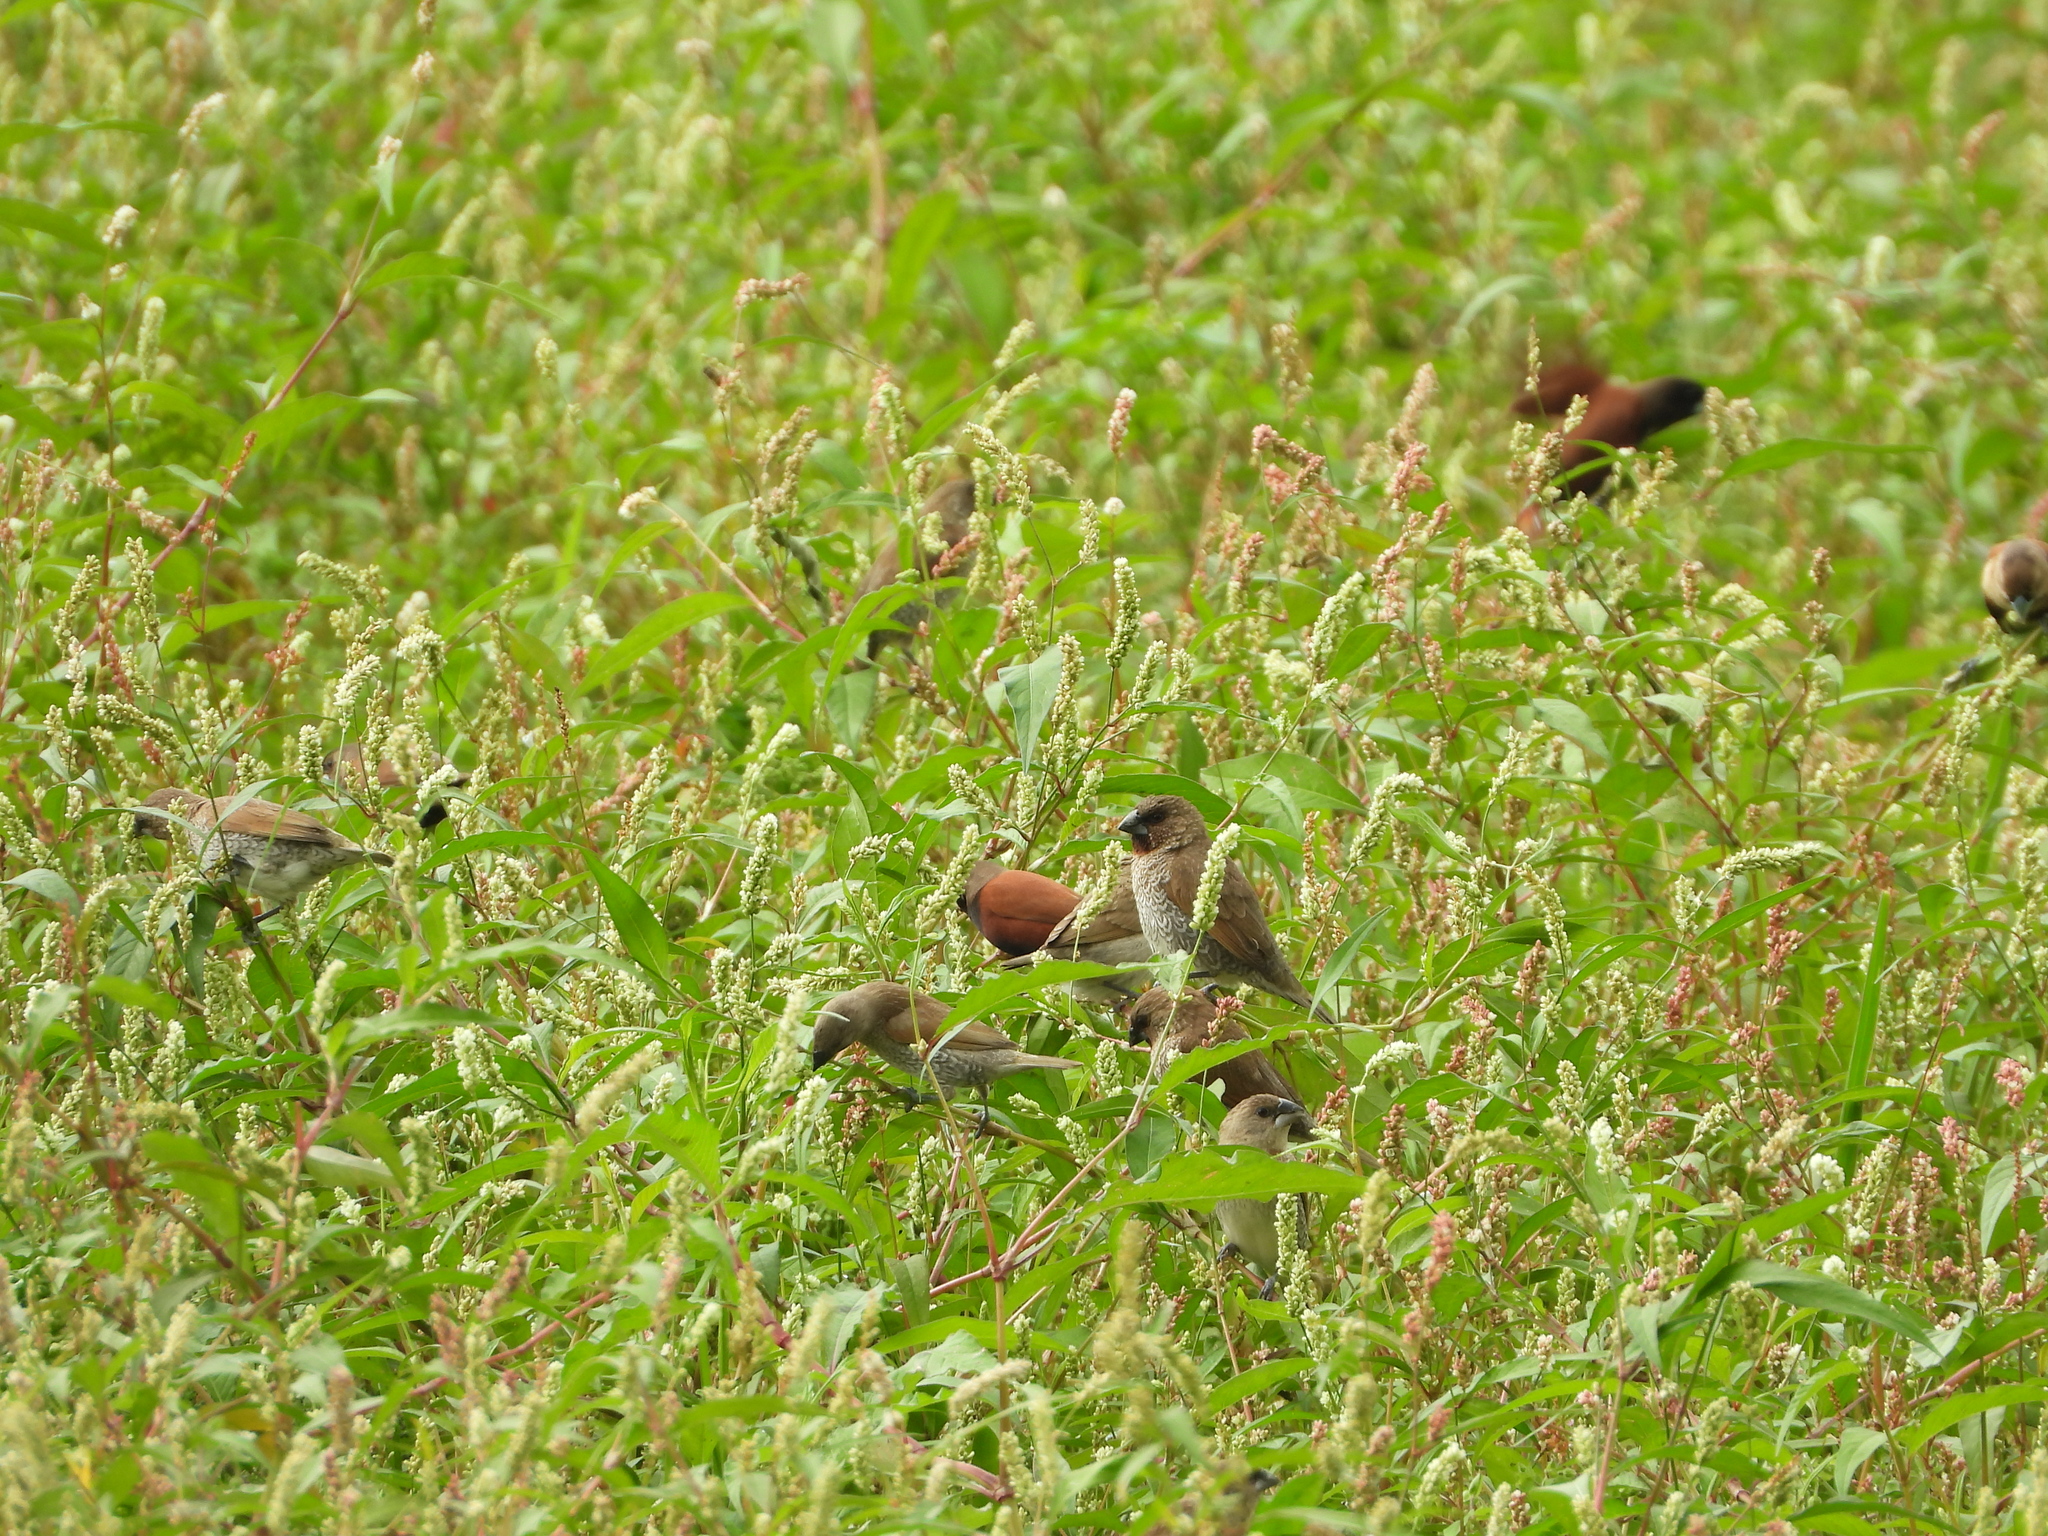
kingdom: Animalia
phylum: Chordata
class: Aves
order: Passeriformes
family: Estrildidae
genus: Lonchura
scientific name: Lonchura punctulata
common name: Scaly-breasted munia
